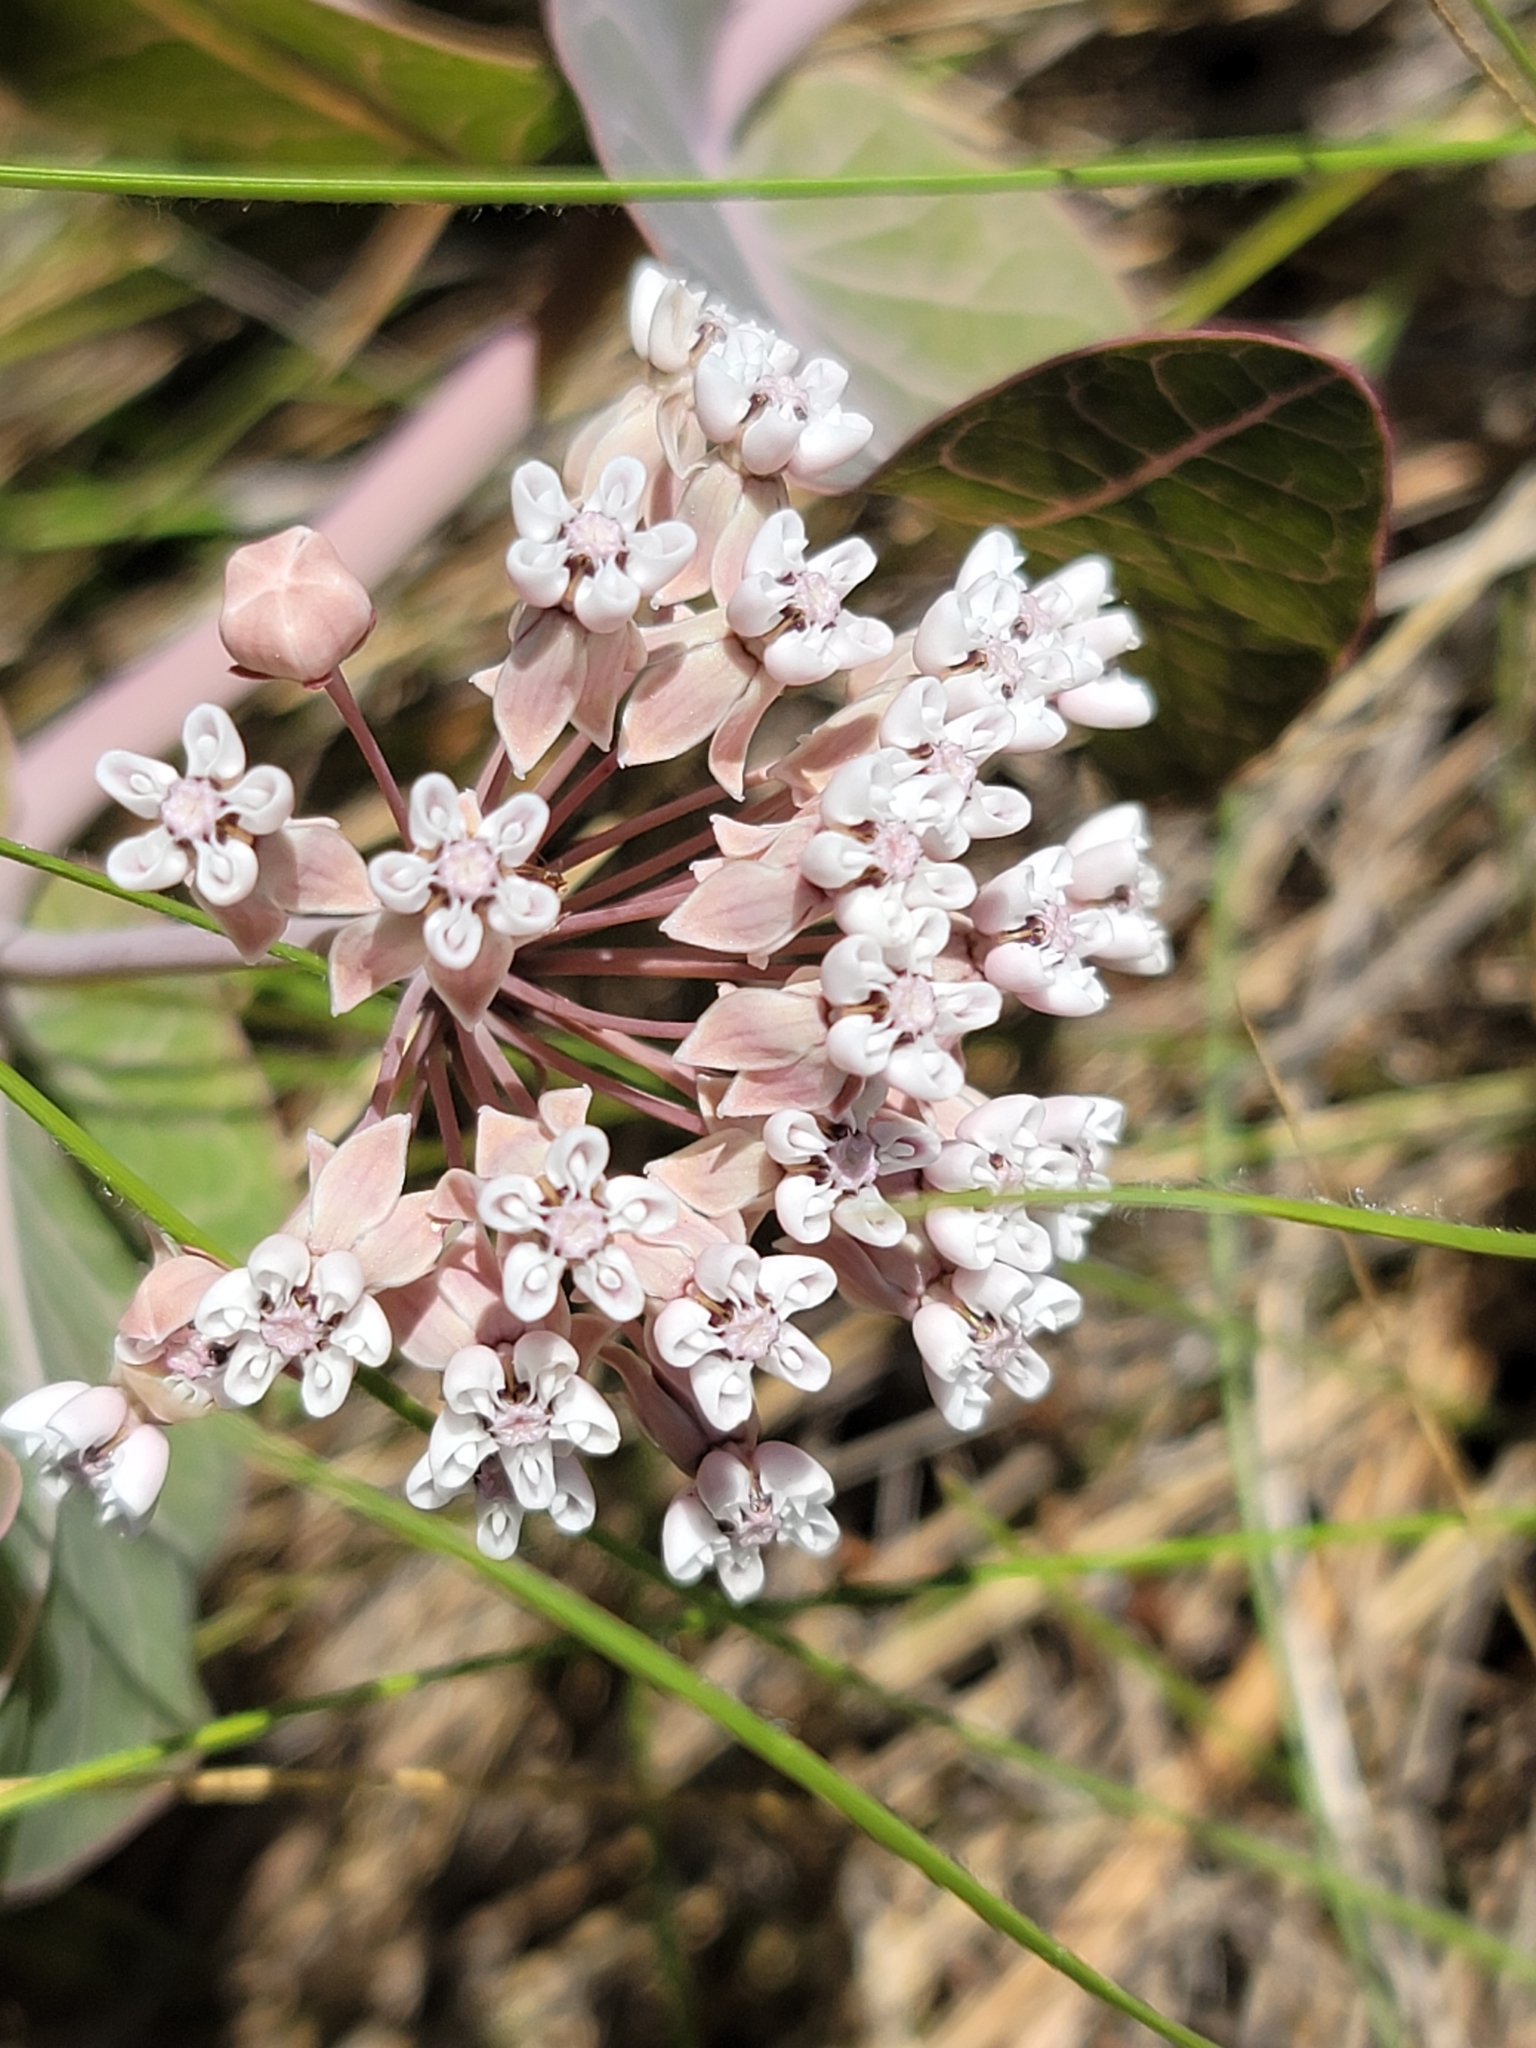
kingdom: Plantae
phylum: Tracheophyta
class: Magnoliopsida
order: Gentianales
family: Apocynaceae
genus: Asclepias
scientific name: Asclepias humistrata
